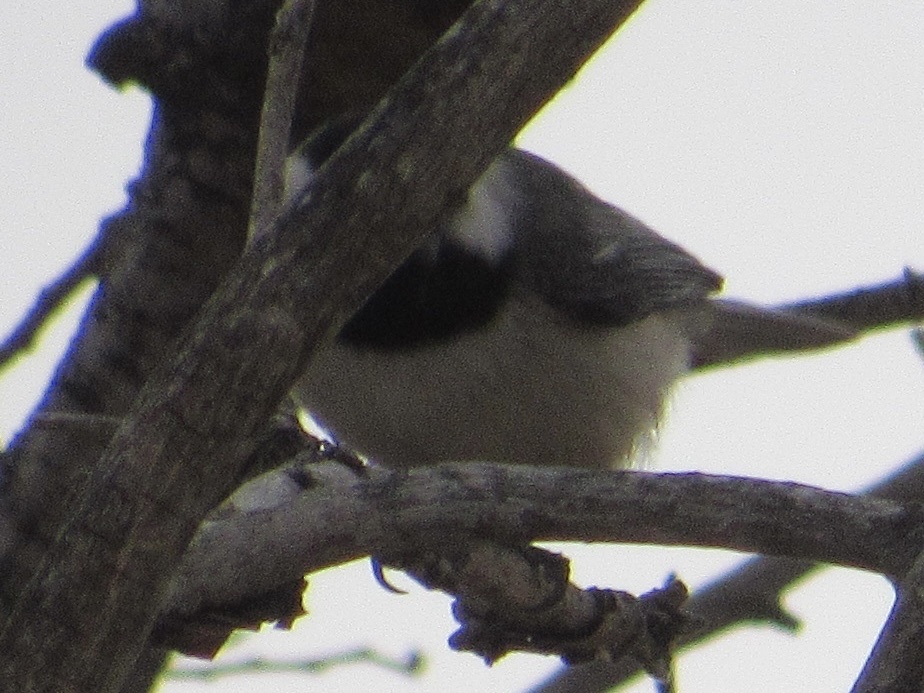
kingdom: Animalia
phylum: Chordata
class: Aves
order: Passeriformes
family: Paridae
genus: Poecile
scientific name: Poecile carolinensis
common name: Carolina chickadee
